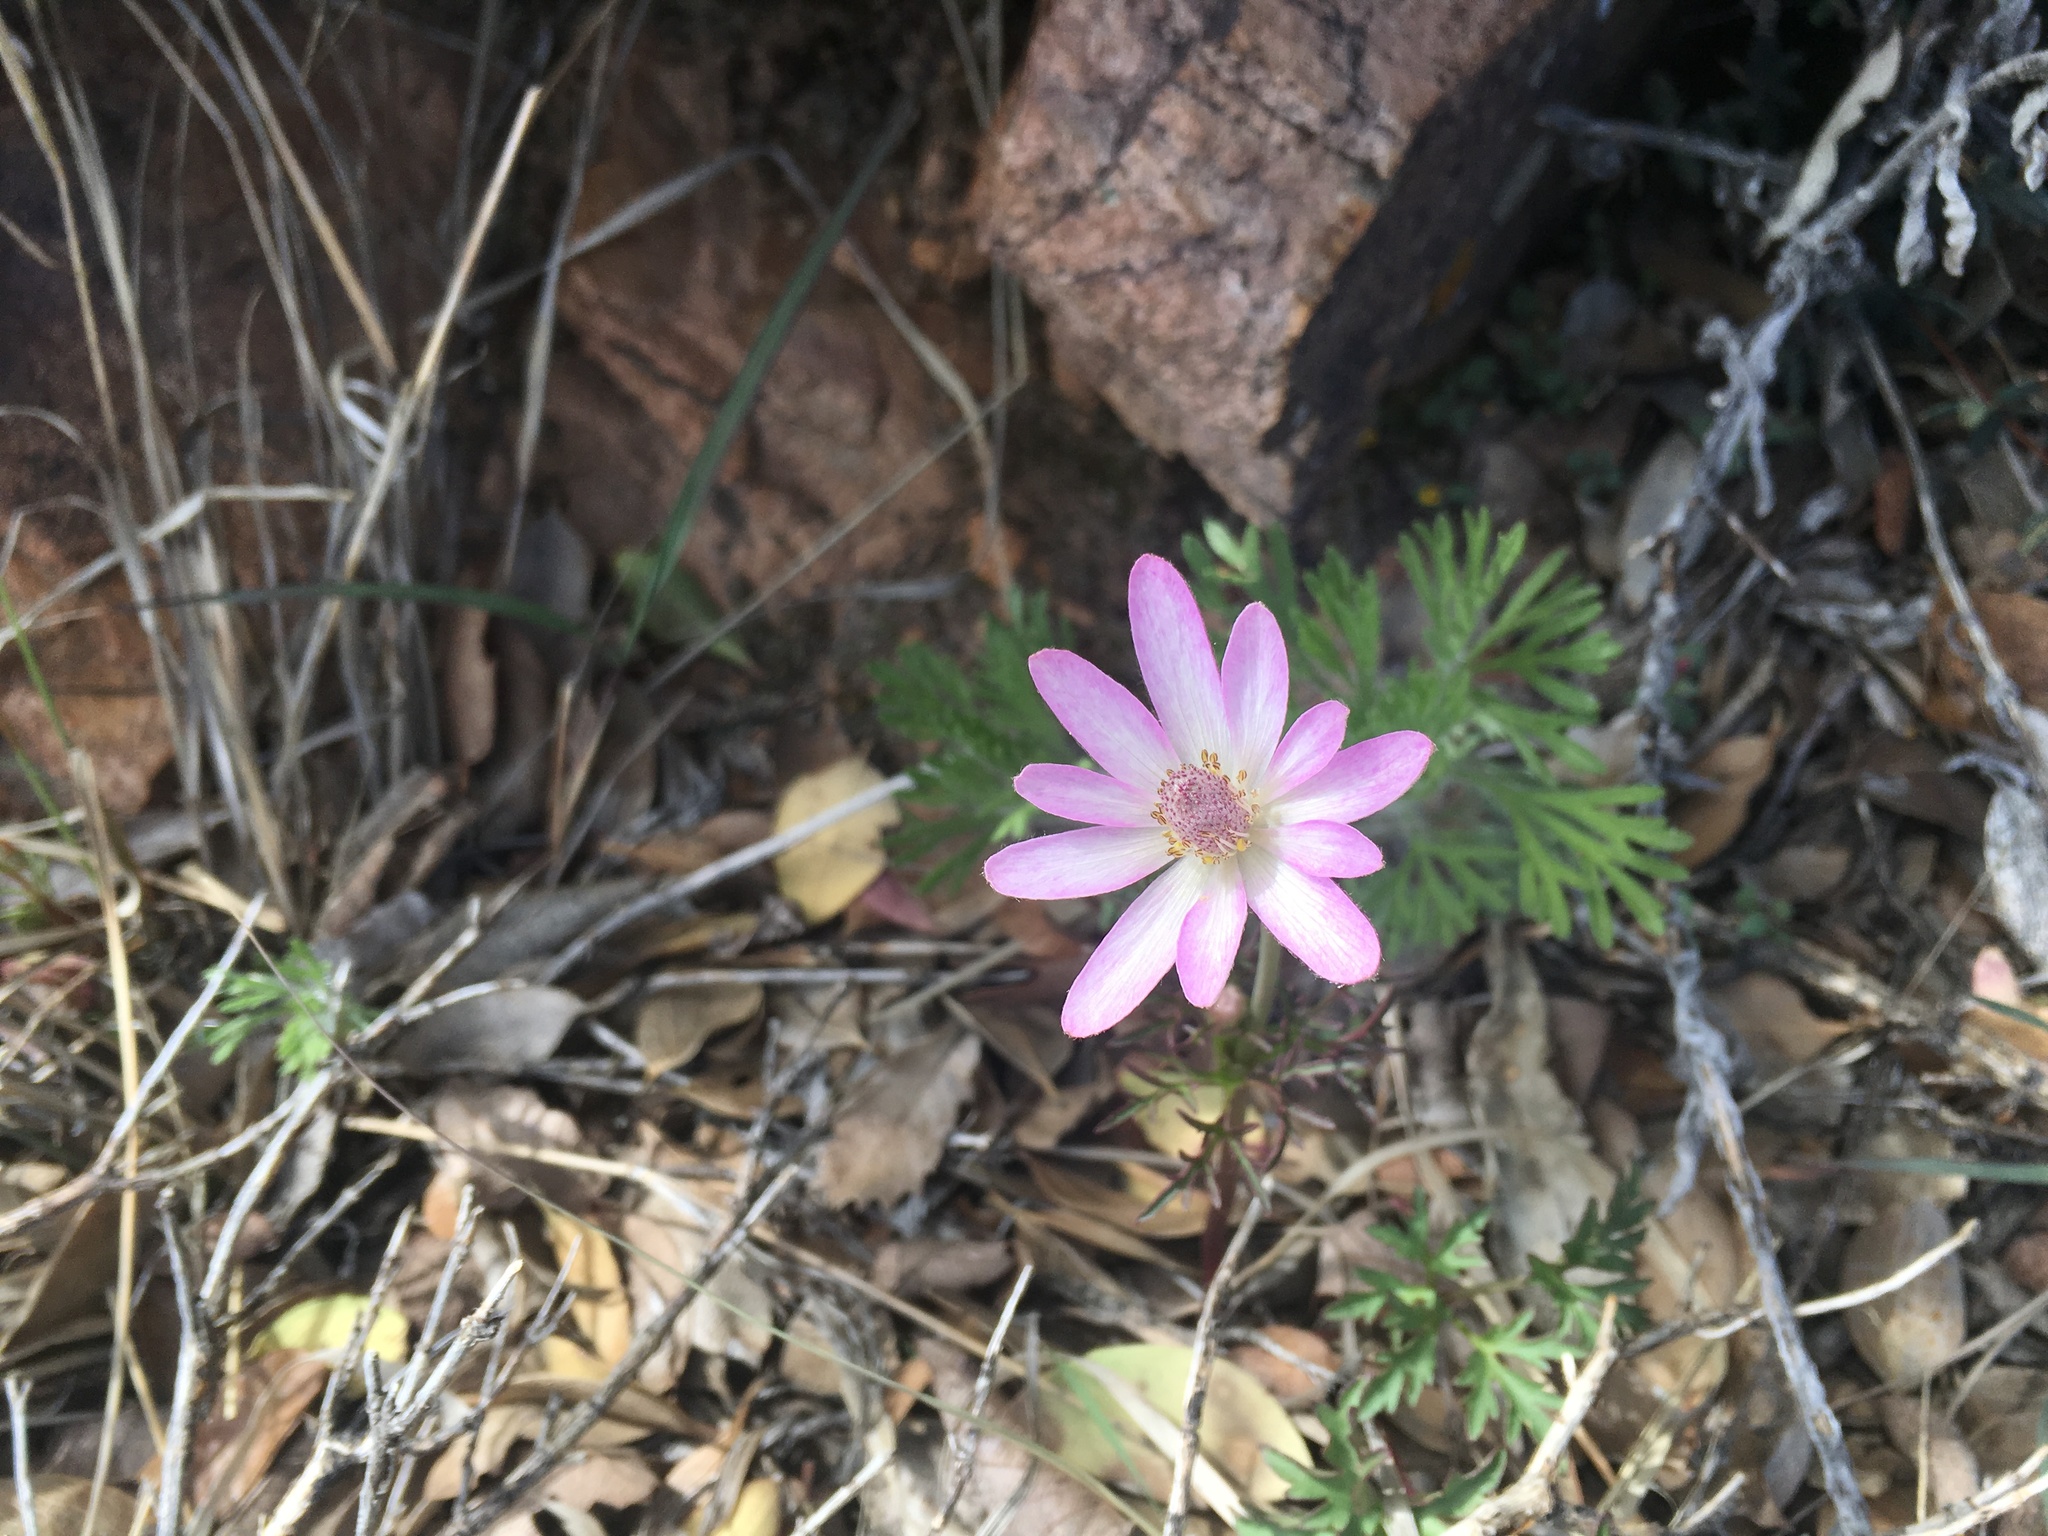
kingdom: Plantae
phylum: Tracheophyta
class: Magnoliopsida
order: Ranunculales
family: Ranunculaceae
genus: Anemone
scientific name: Anemone tuberosa
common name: Desert anemone
